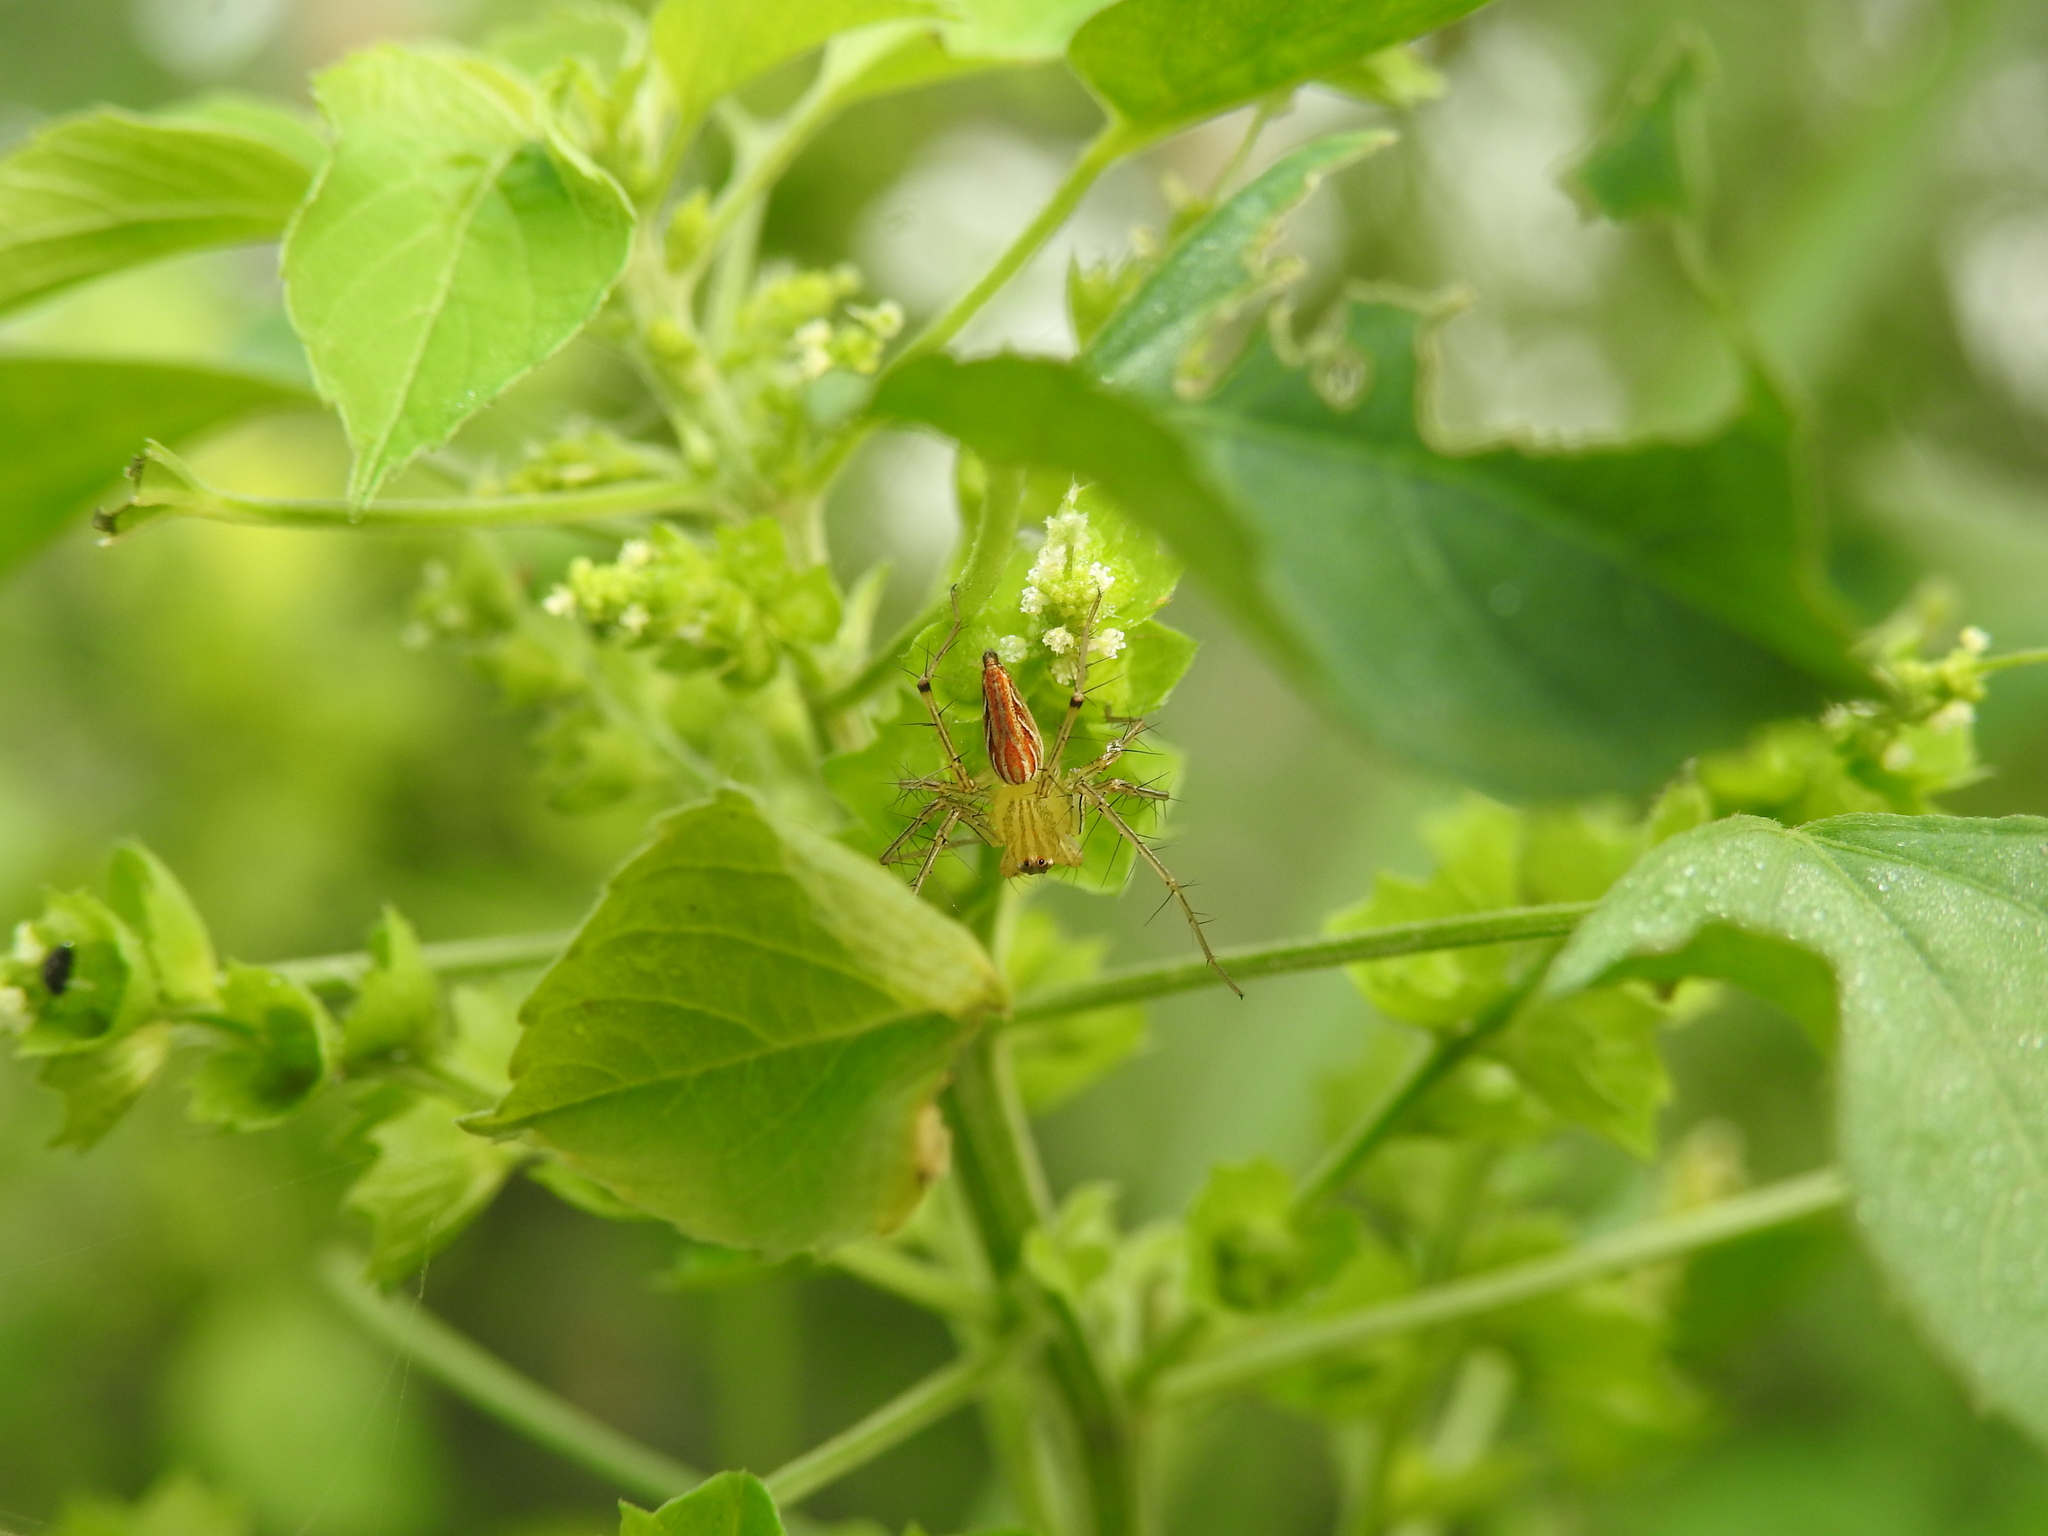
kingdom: Plantae
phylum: Tracheophyta
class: Magnoliopsida
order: Malpighiales
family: Euphorbiaceae
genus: Acalypha
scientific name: Acalypha indica
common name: Indian acalypha
